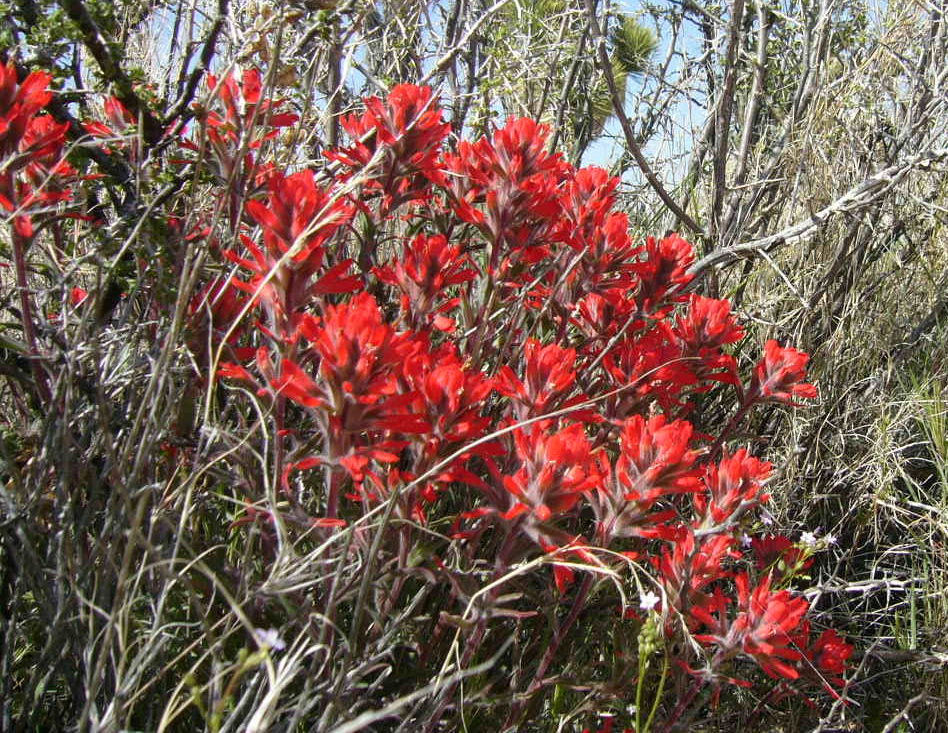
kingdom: Plantae
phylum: Tracheophyta
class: Magnoliopsida
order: Lamiales
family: Orobanchaceae
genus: Castilleja
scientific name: Castilleja chromosa
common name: Desert paintbrush
